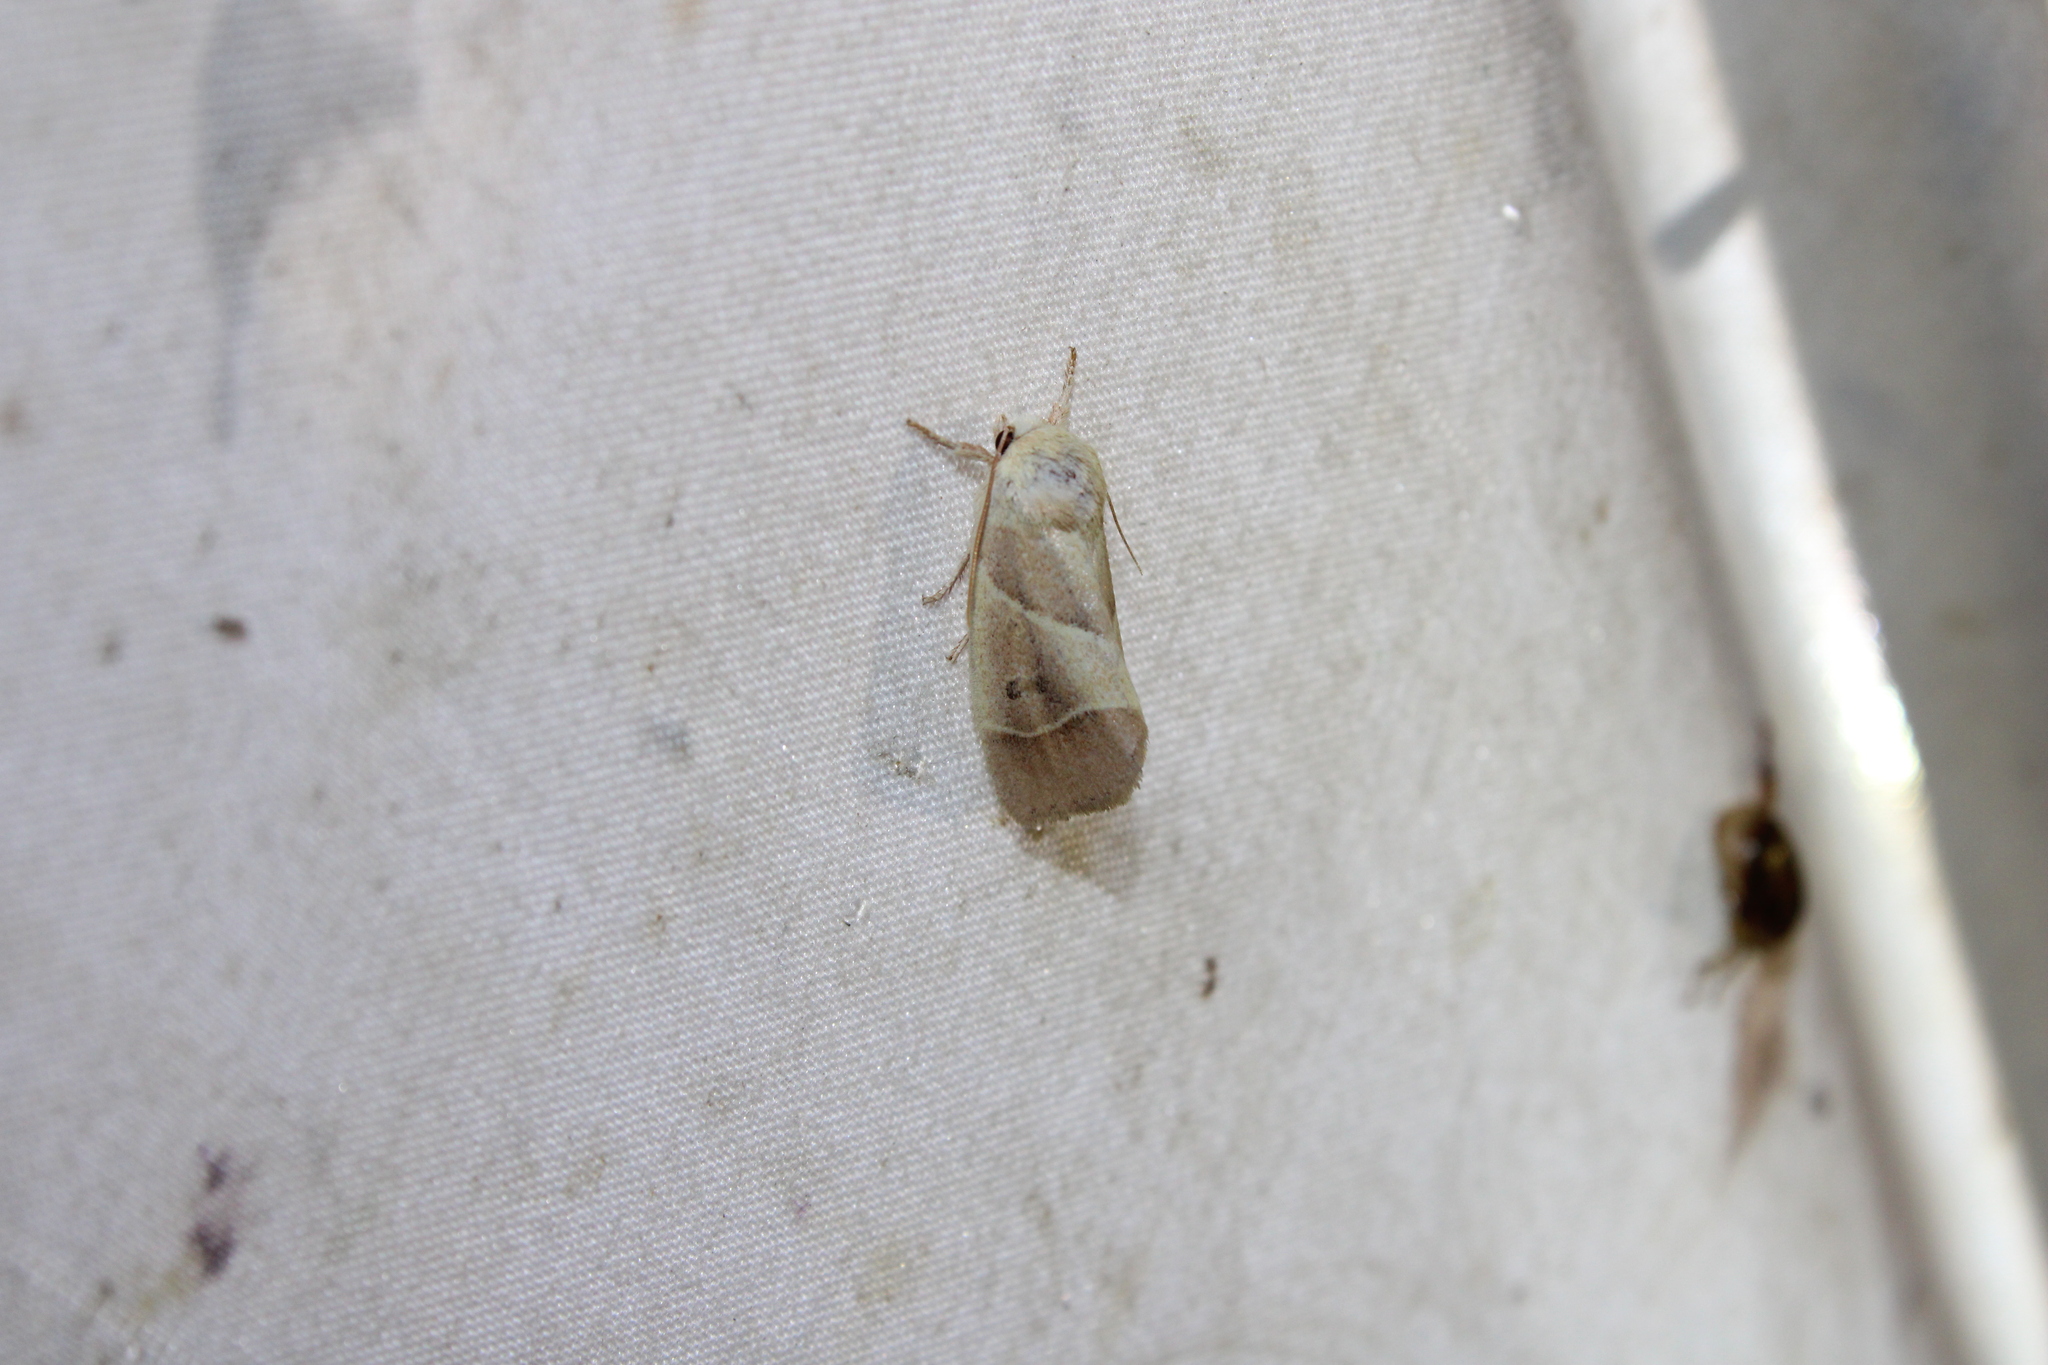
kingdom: Animalia
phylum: Arthropoda
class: Insecta
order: Lepidoptera
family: Noctuidae
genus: Cosmia
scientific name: Cosmia calami
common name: American dun-bar moth
